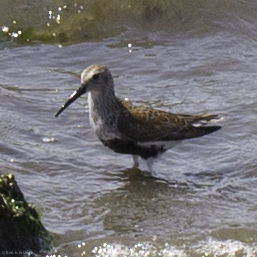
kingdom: Animalia
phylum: Chordata
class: Aves
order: Charadriiformes
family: Scolopacidae
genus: Calidris
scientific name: Calidris alpina
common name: Dunlin
